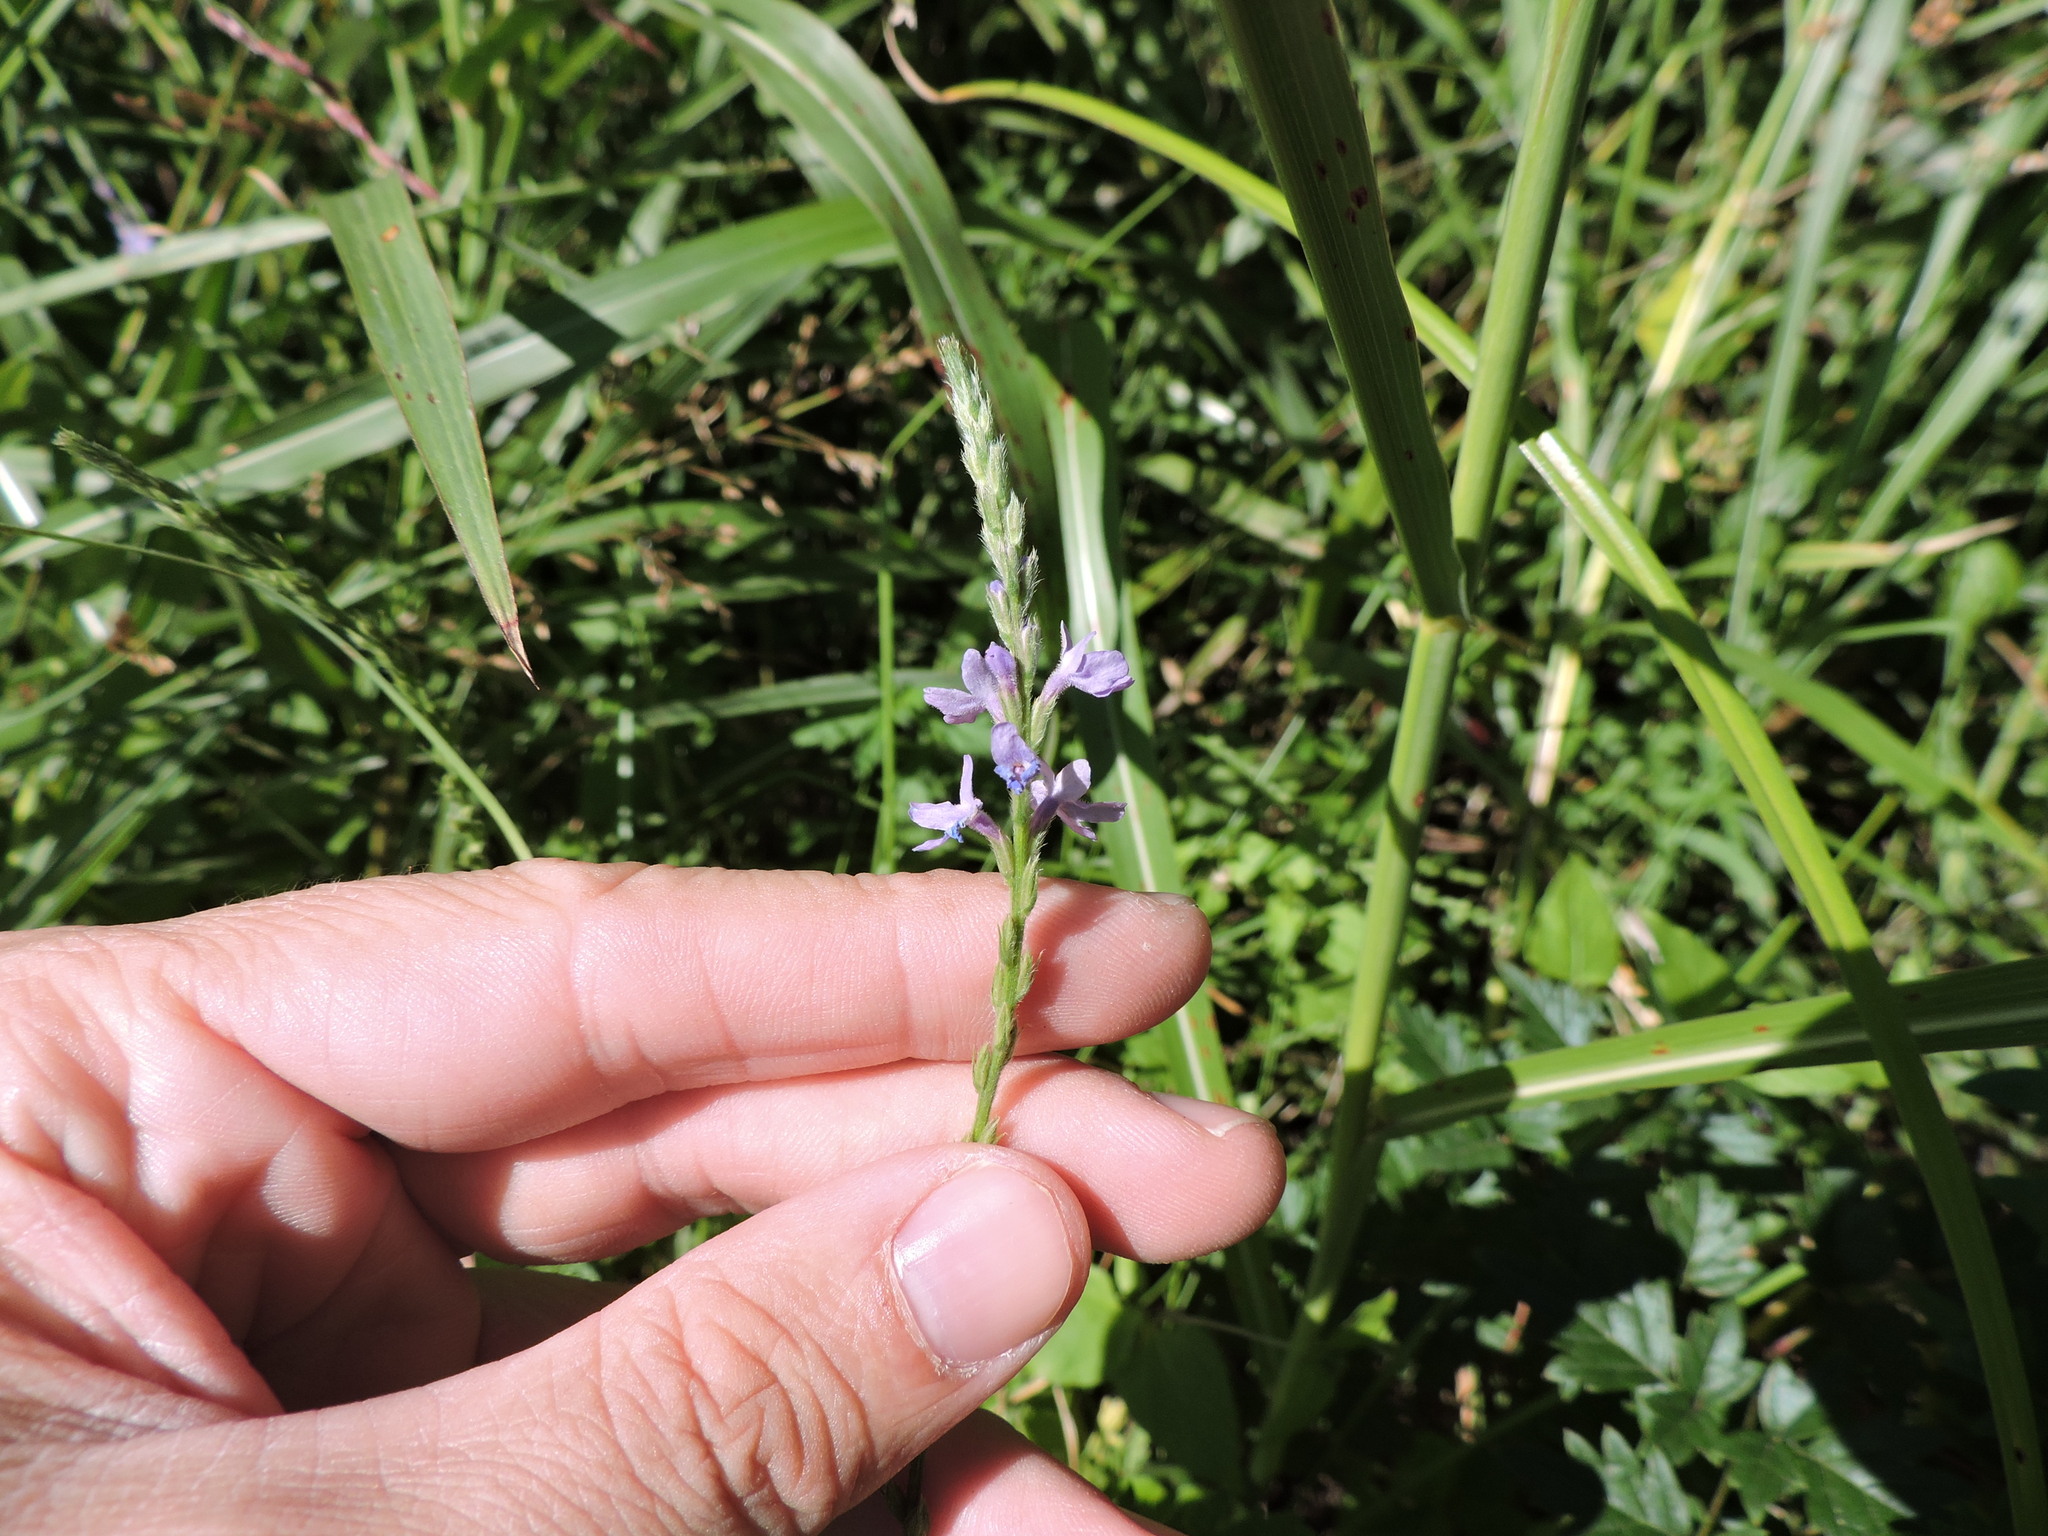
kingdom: Plantae
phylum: Tracheophyta
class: Magnoliopsida
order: Lamiales
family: Verbenaceae
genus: Verbena
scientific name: Verbena halei
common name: Texas vervain
